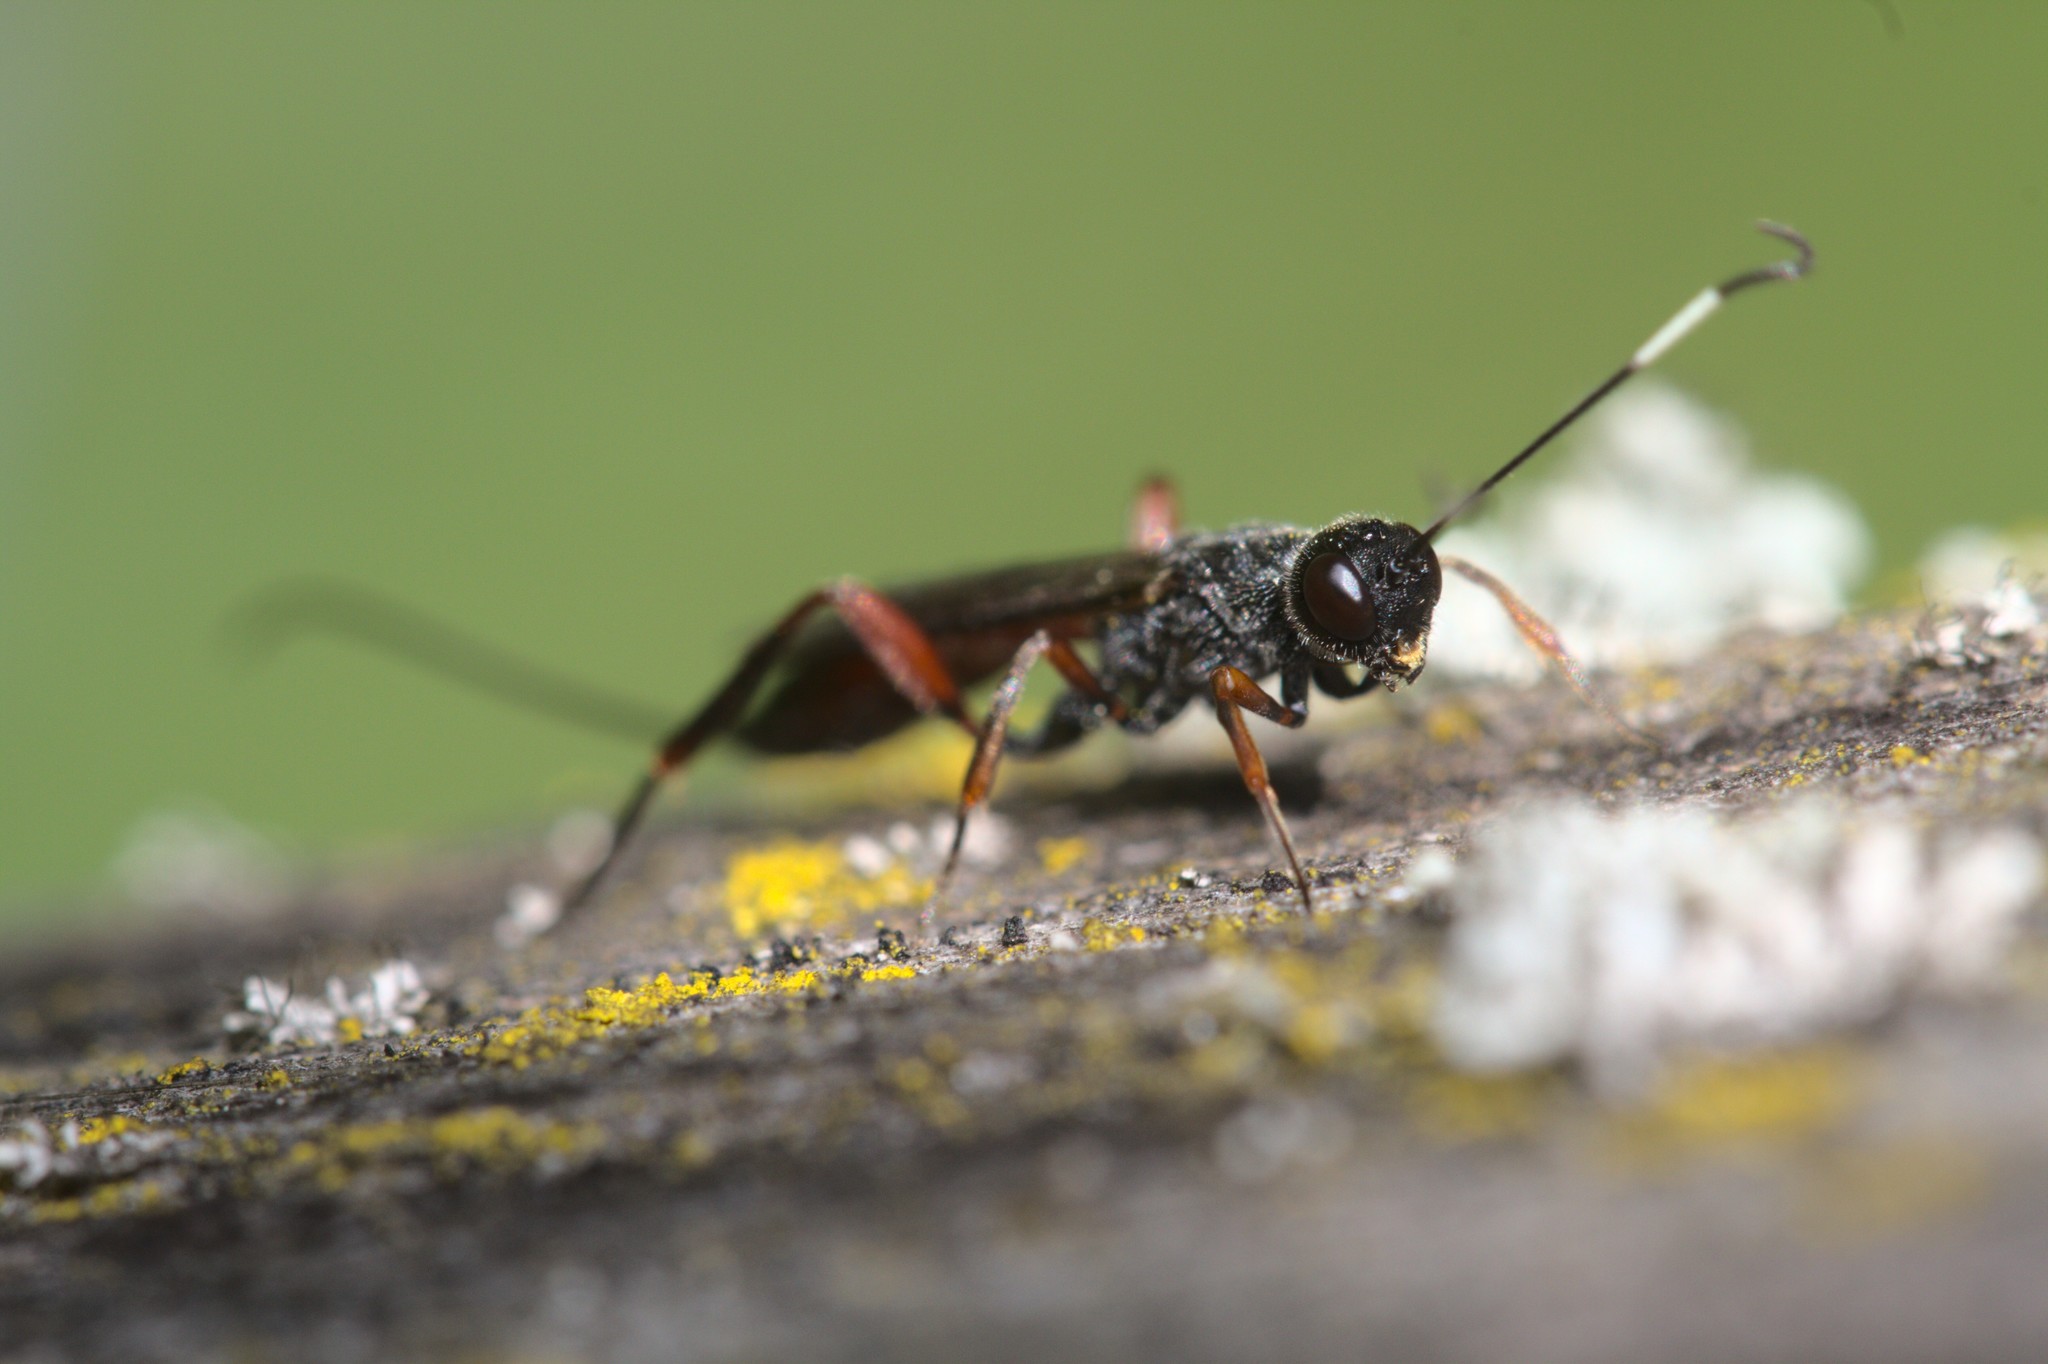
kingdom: Animalia
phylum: Arthropoda
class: Insecta
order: Hymenoptera
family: Ichneumonidae
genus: Xorides
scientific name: Xorides fuligator
